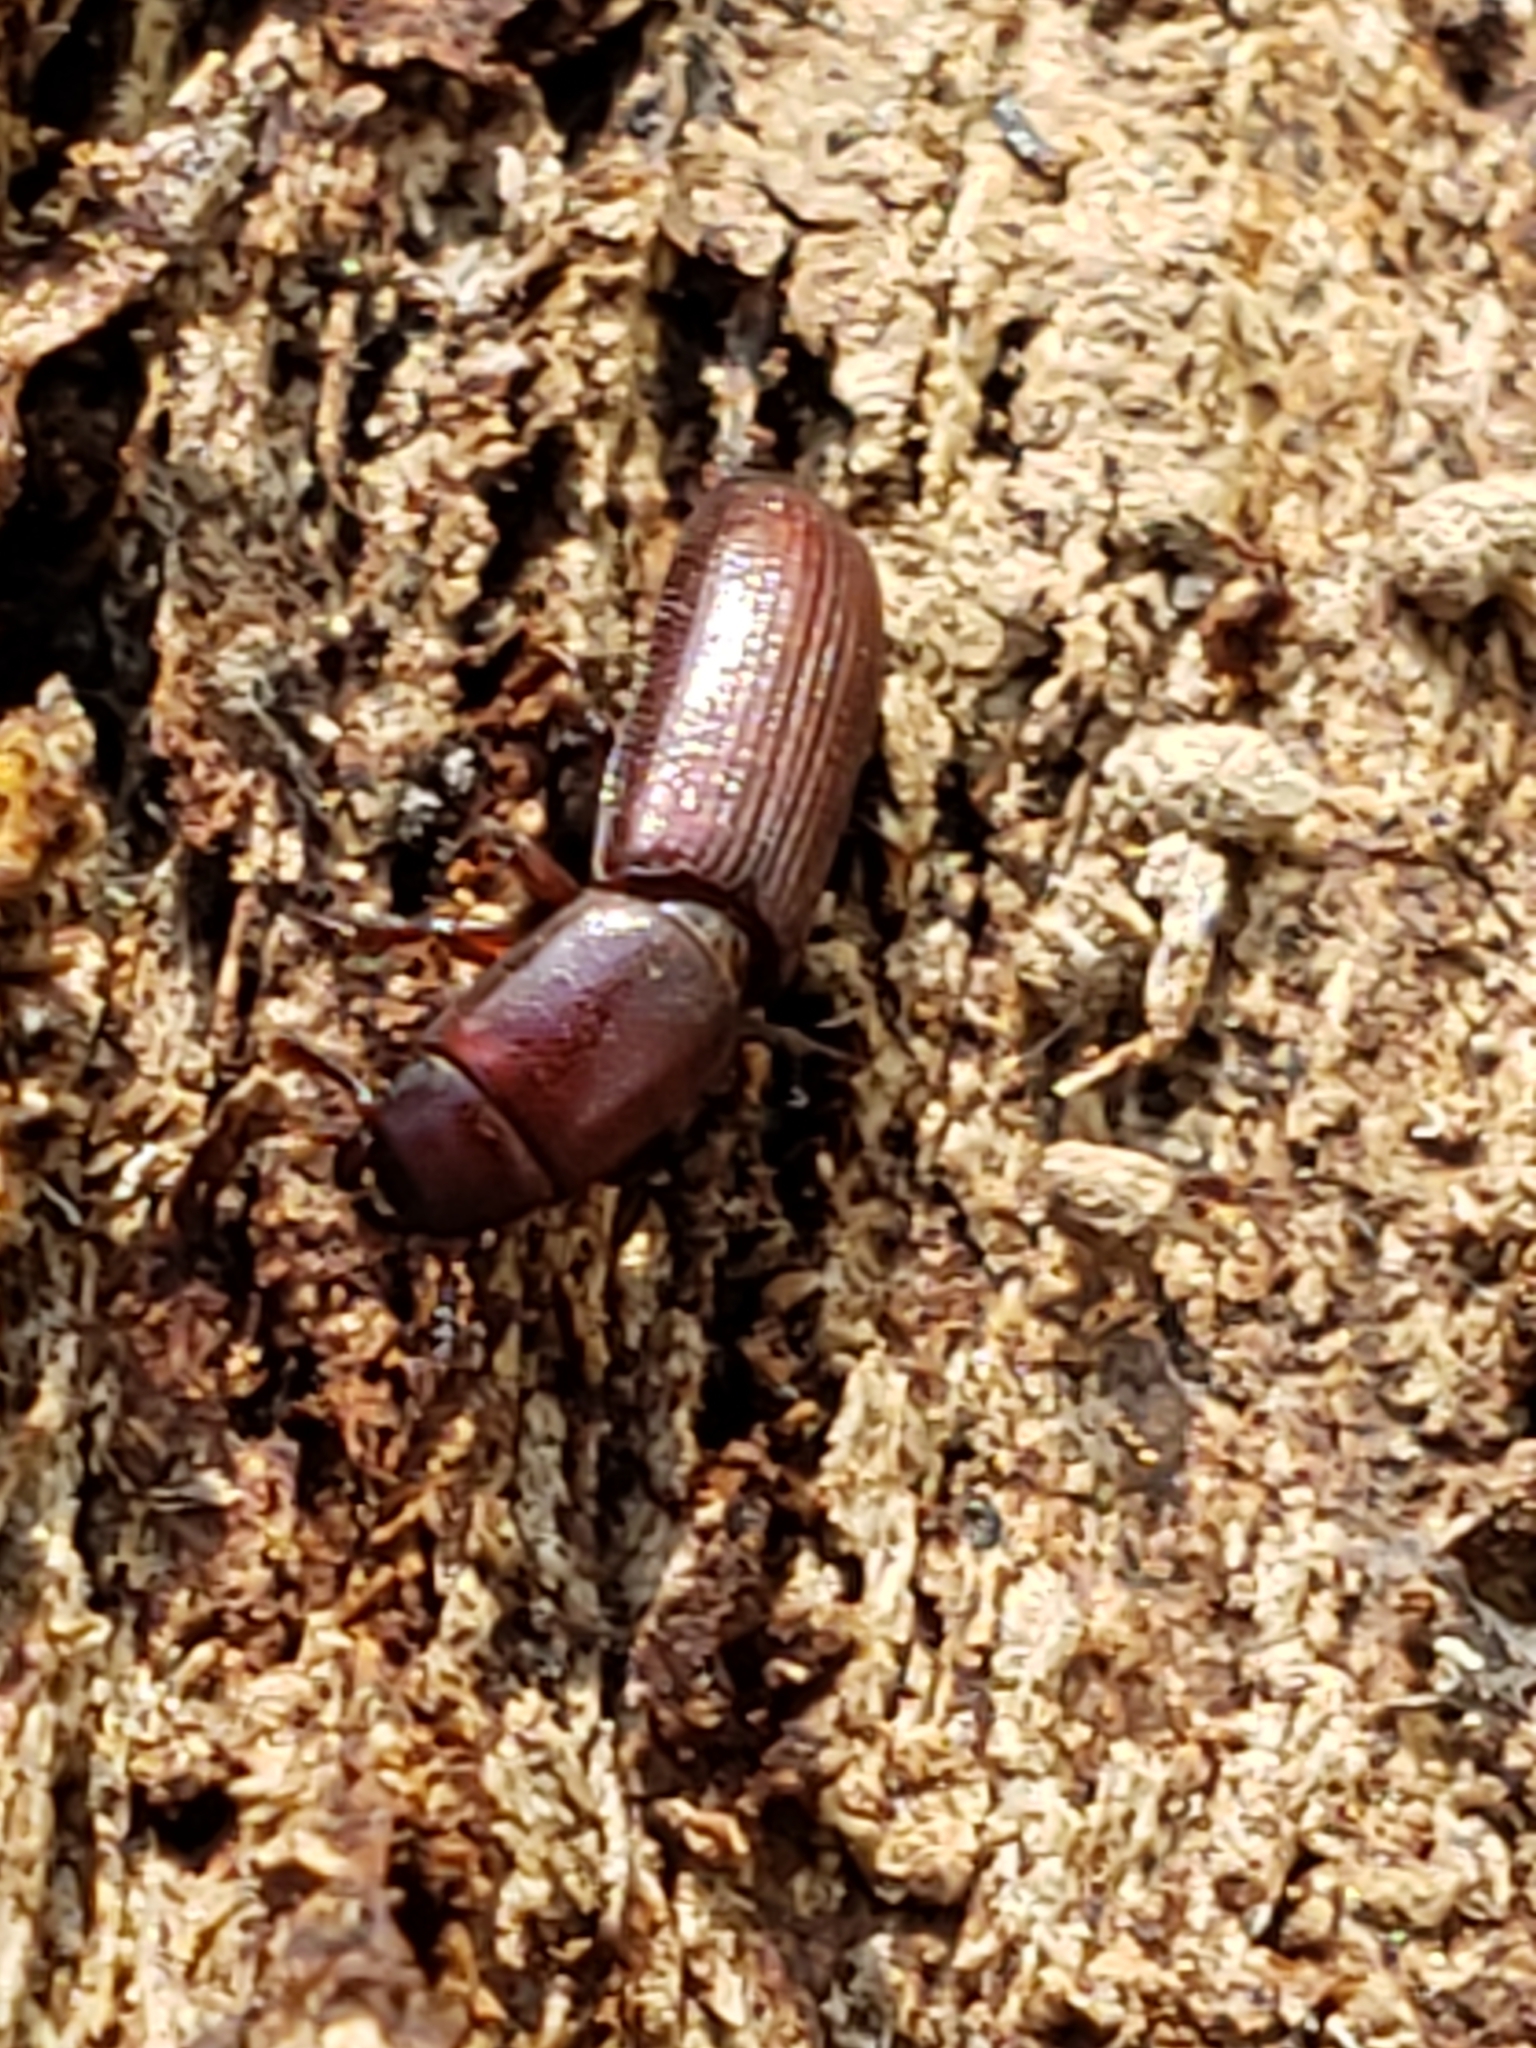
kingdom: Animalia
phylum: Arthropoda
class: Insecta
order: Coleoptera
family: Trogossitidae
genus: Airora
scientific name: Airora cylindrica
